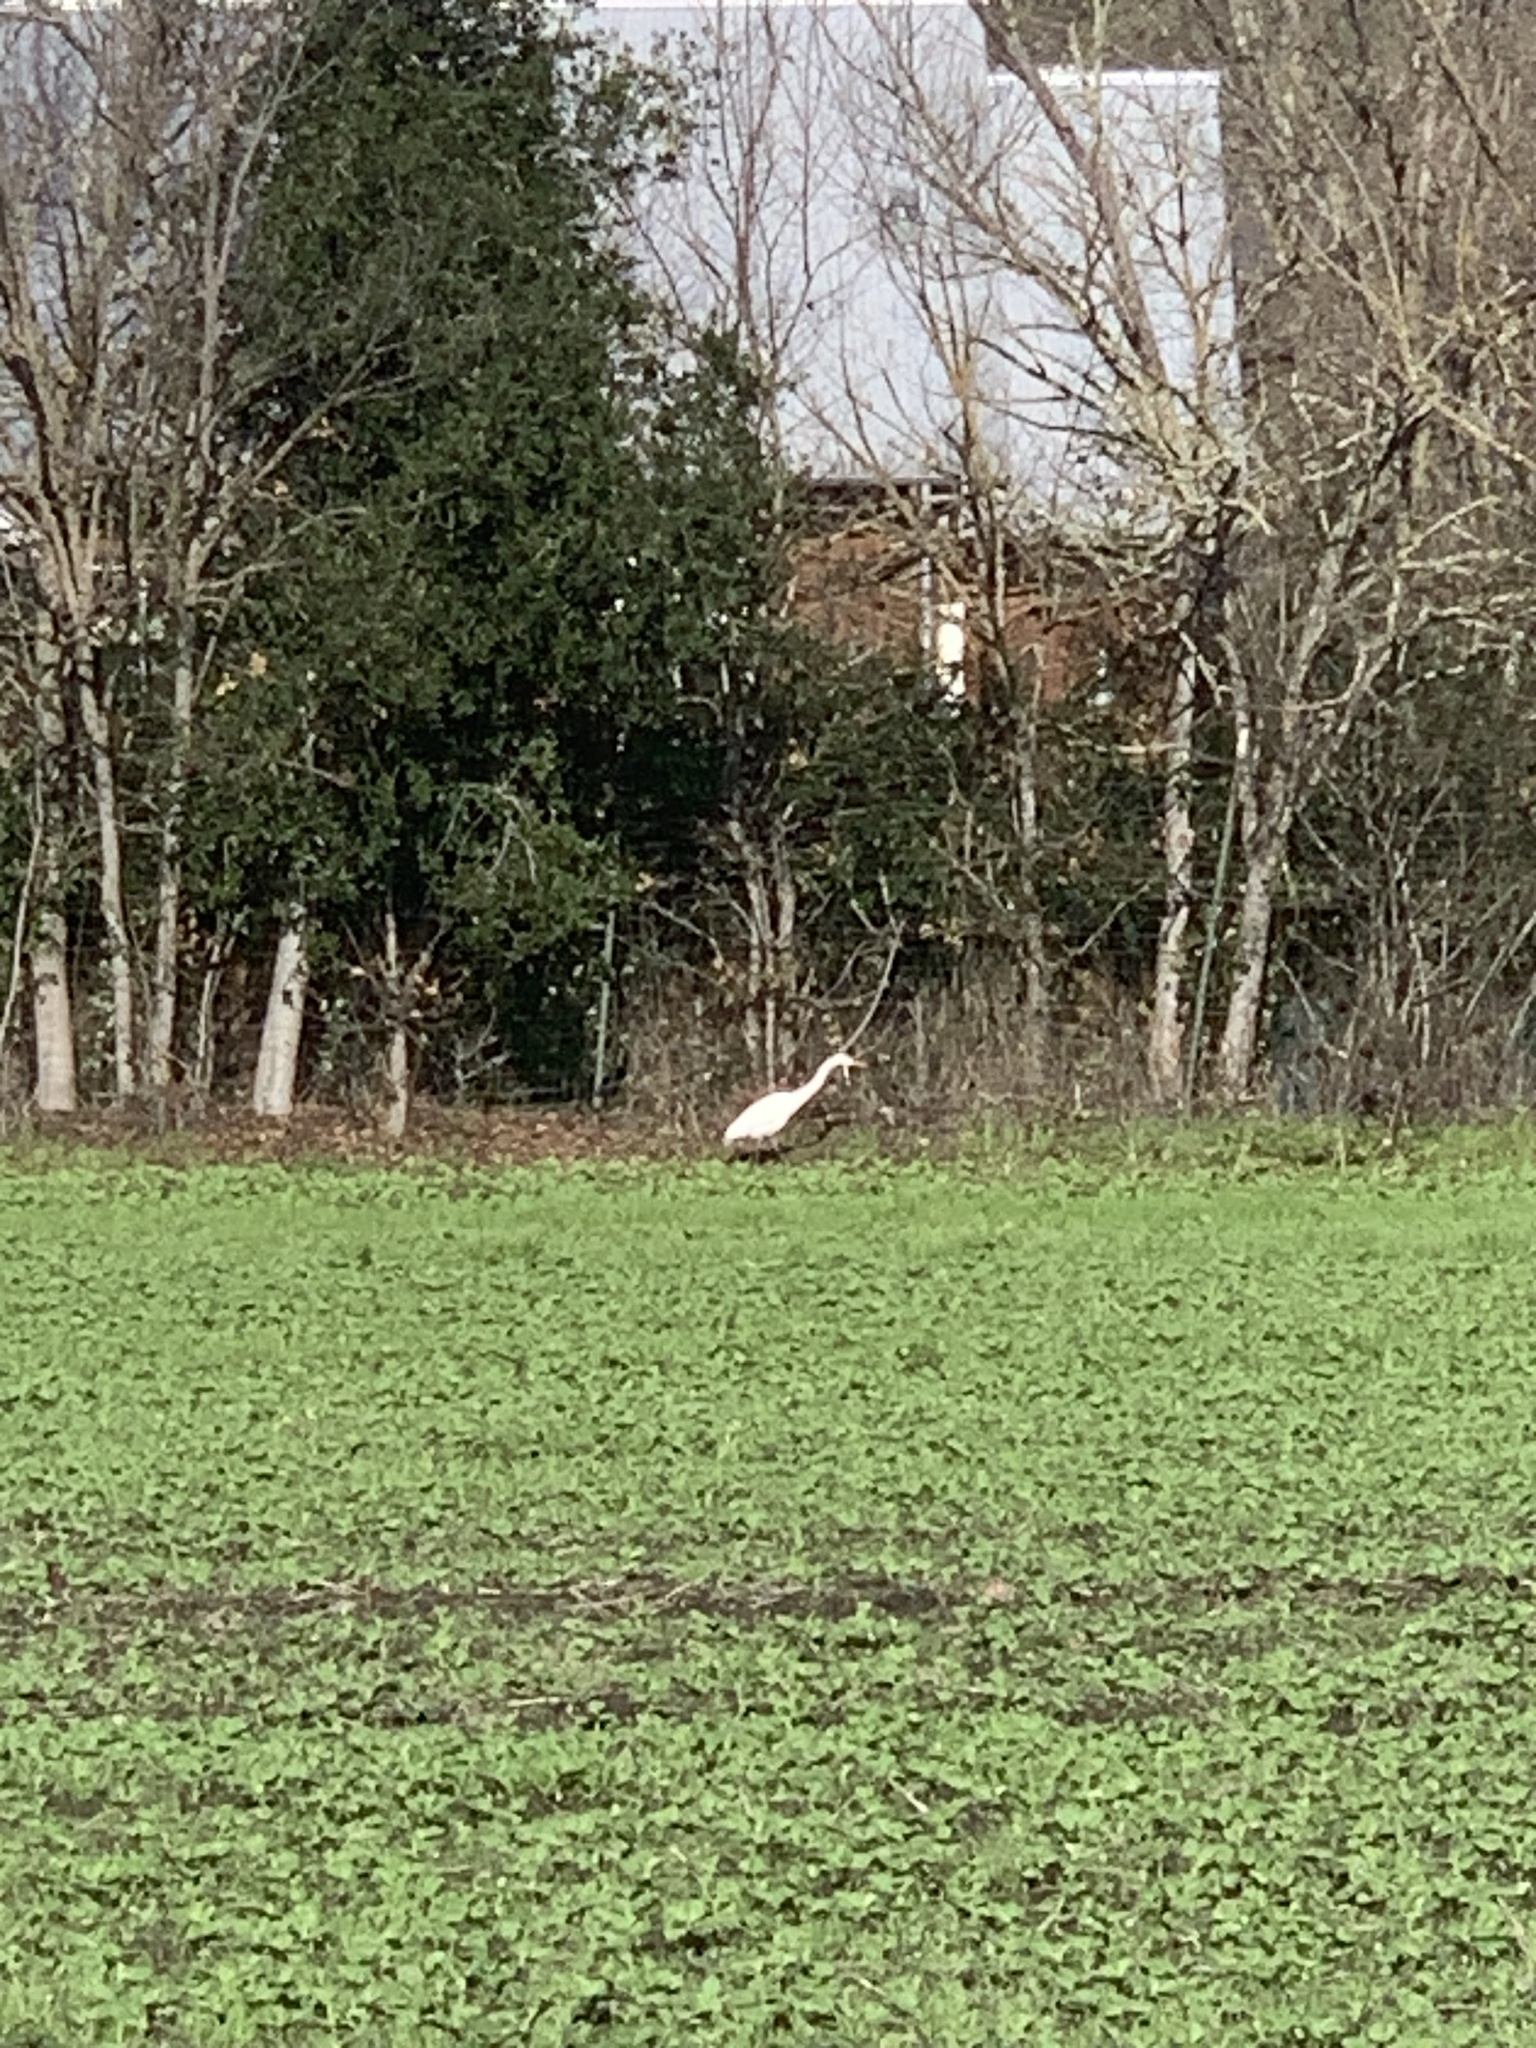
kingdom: Animalia
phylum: Chordata
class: Aves
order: Pelecaniformes
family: Ardeidae
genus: Ardea
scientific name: Ardea alba
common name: Great egret
